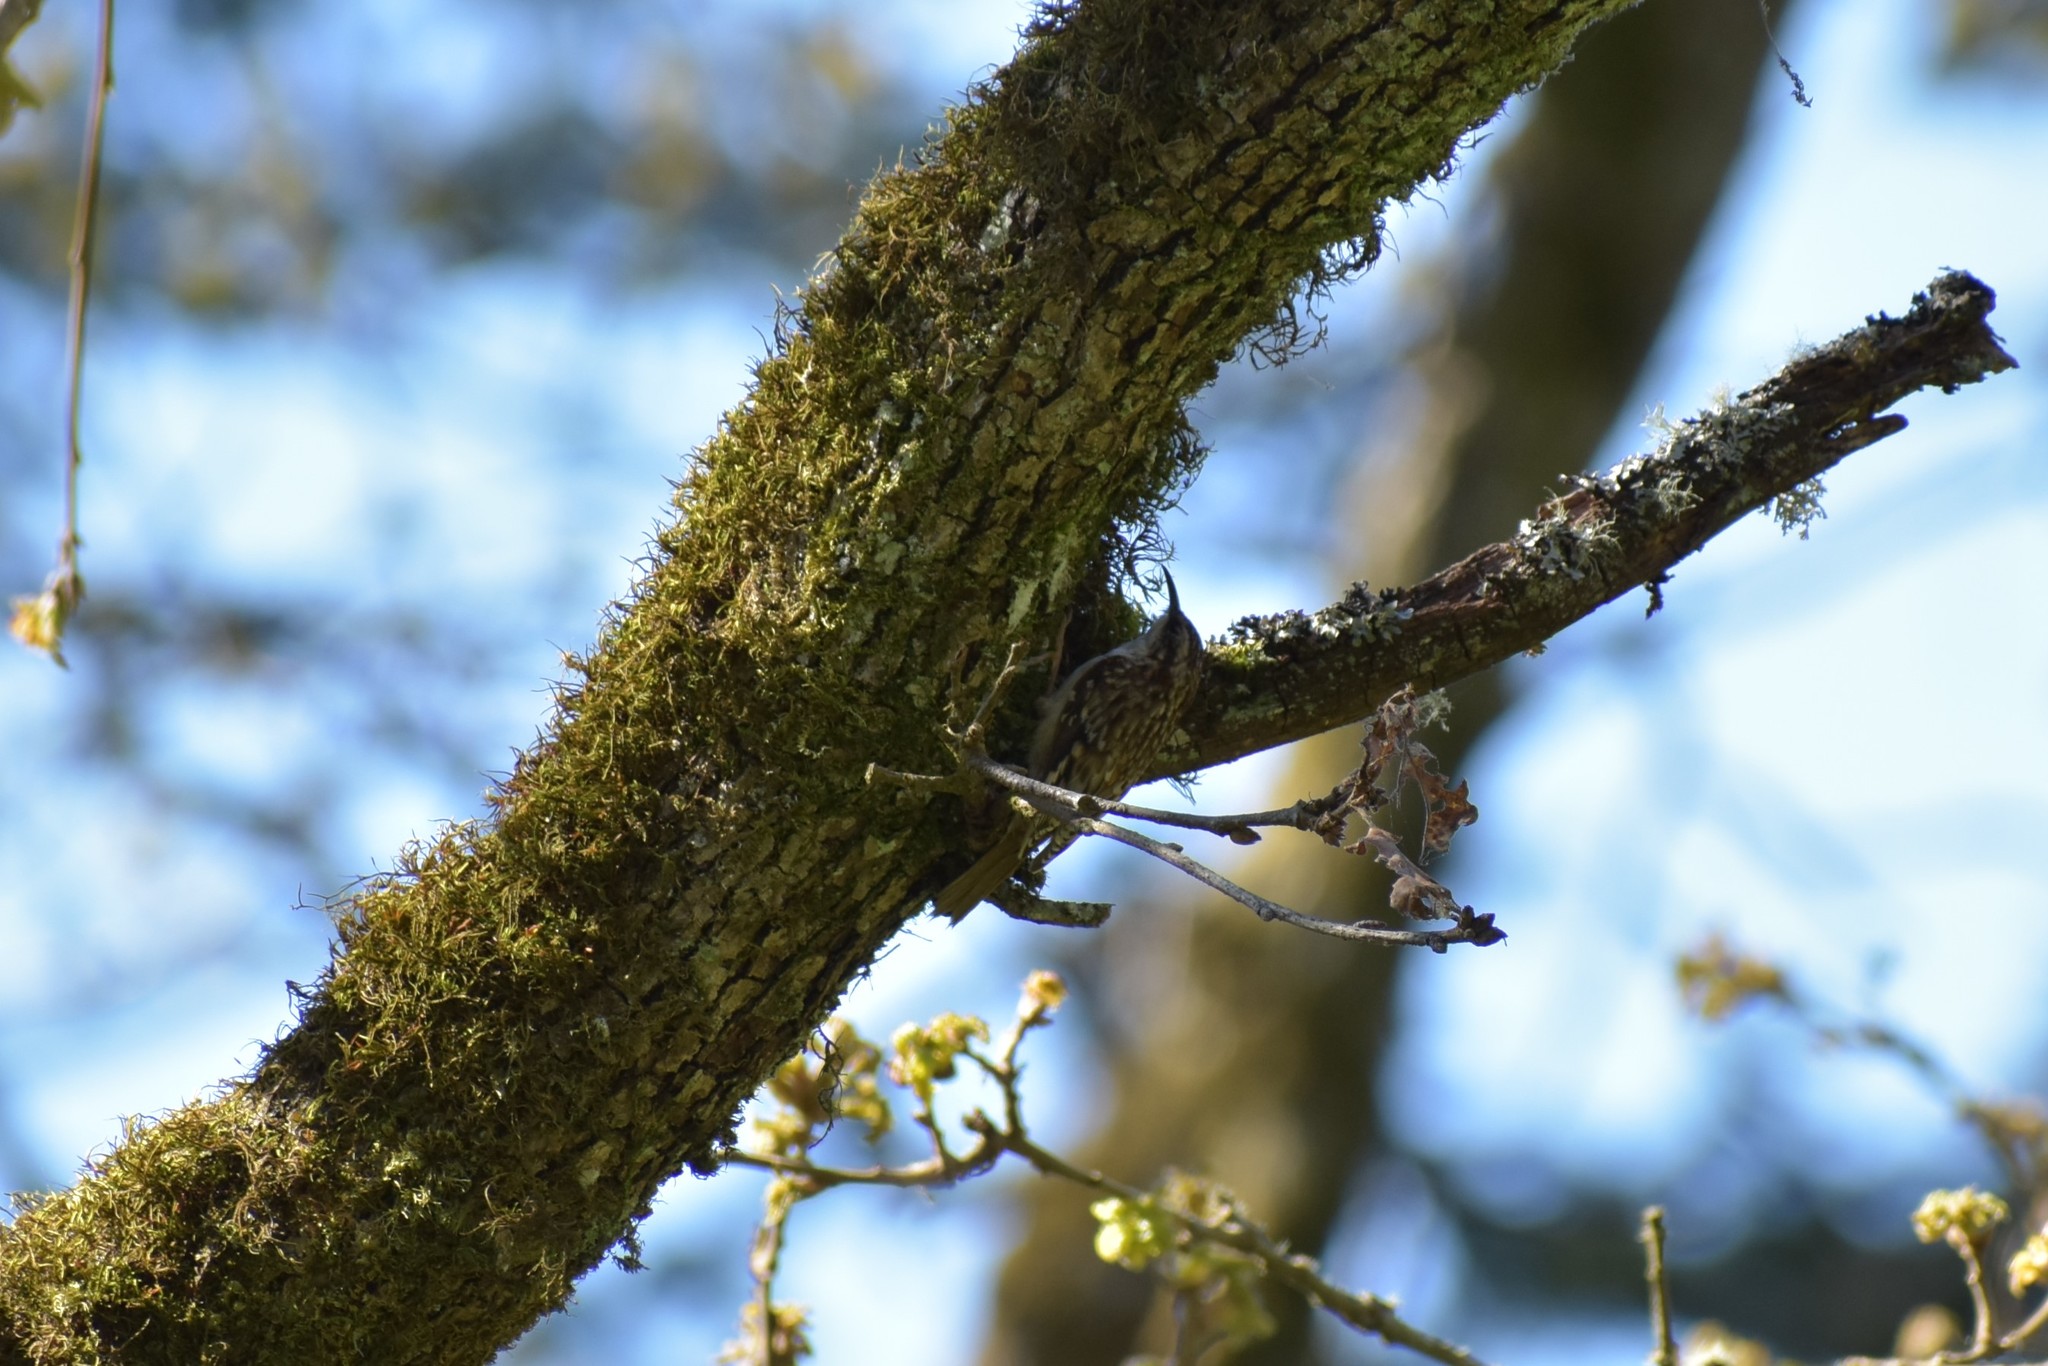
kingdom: Animalia
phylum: Chordata
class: Aves
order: Passeriformes
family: Certhiidae
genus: Certhia
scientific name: Certhia americana
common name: Brown creeper
